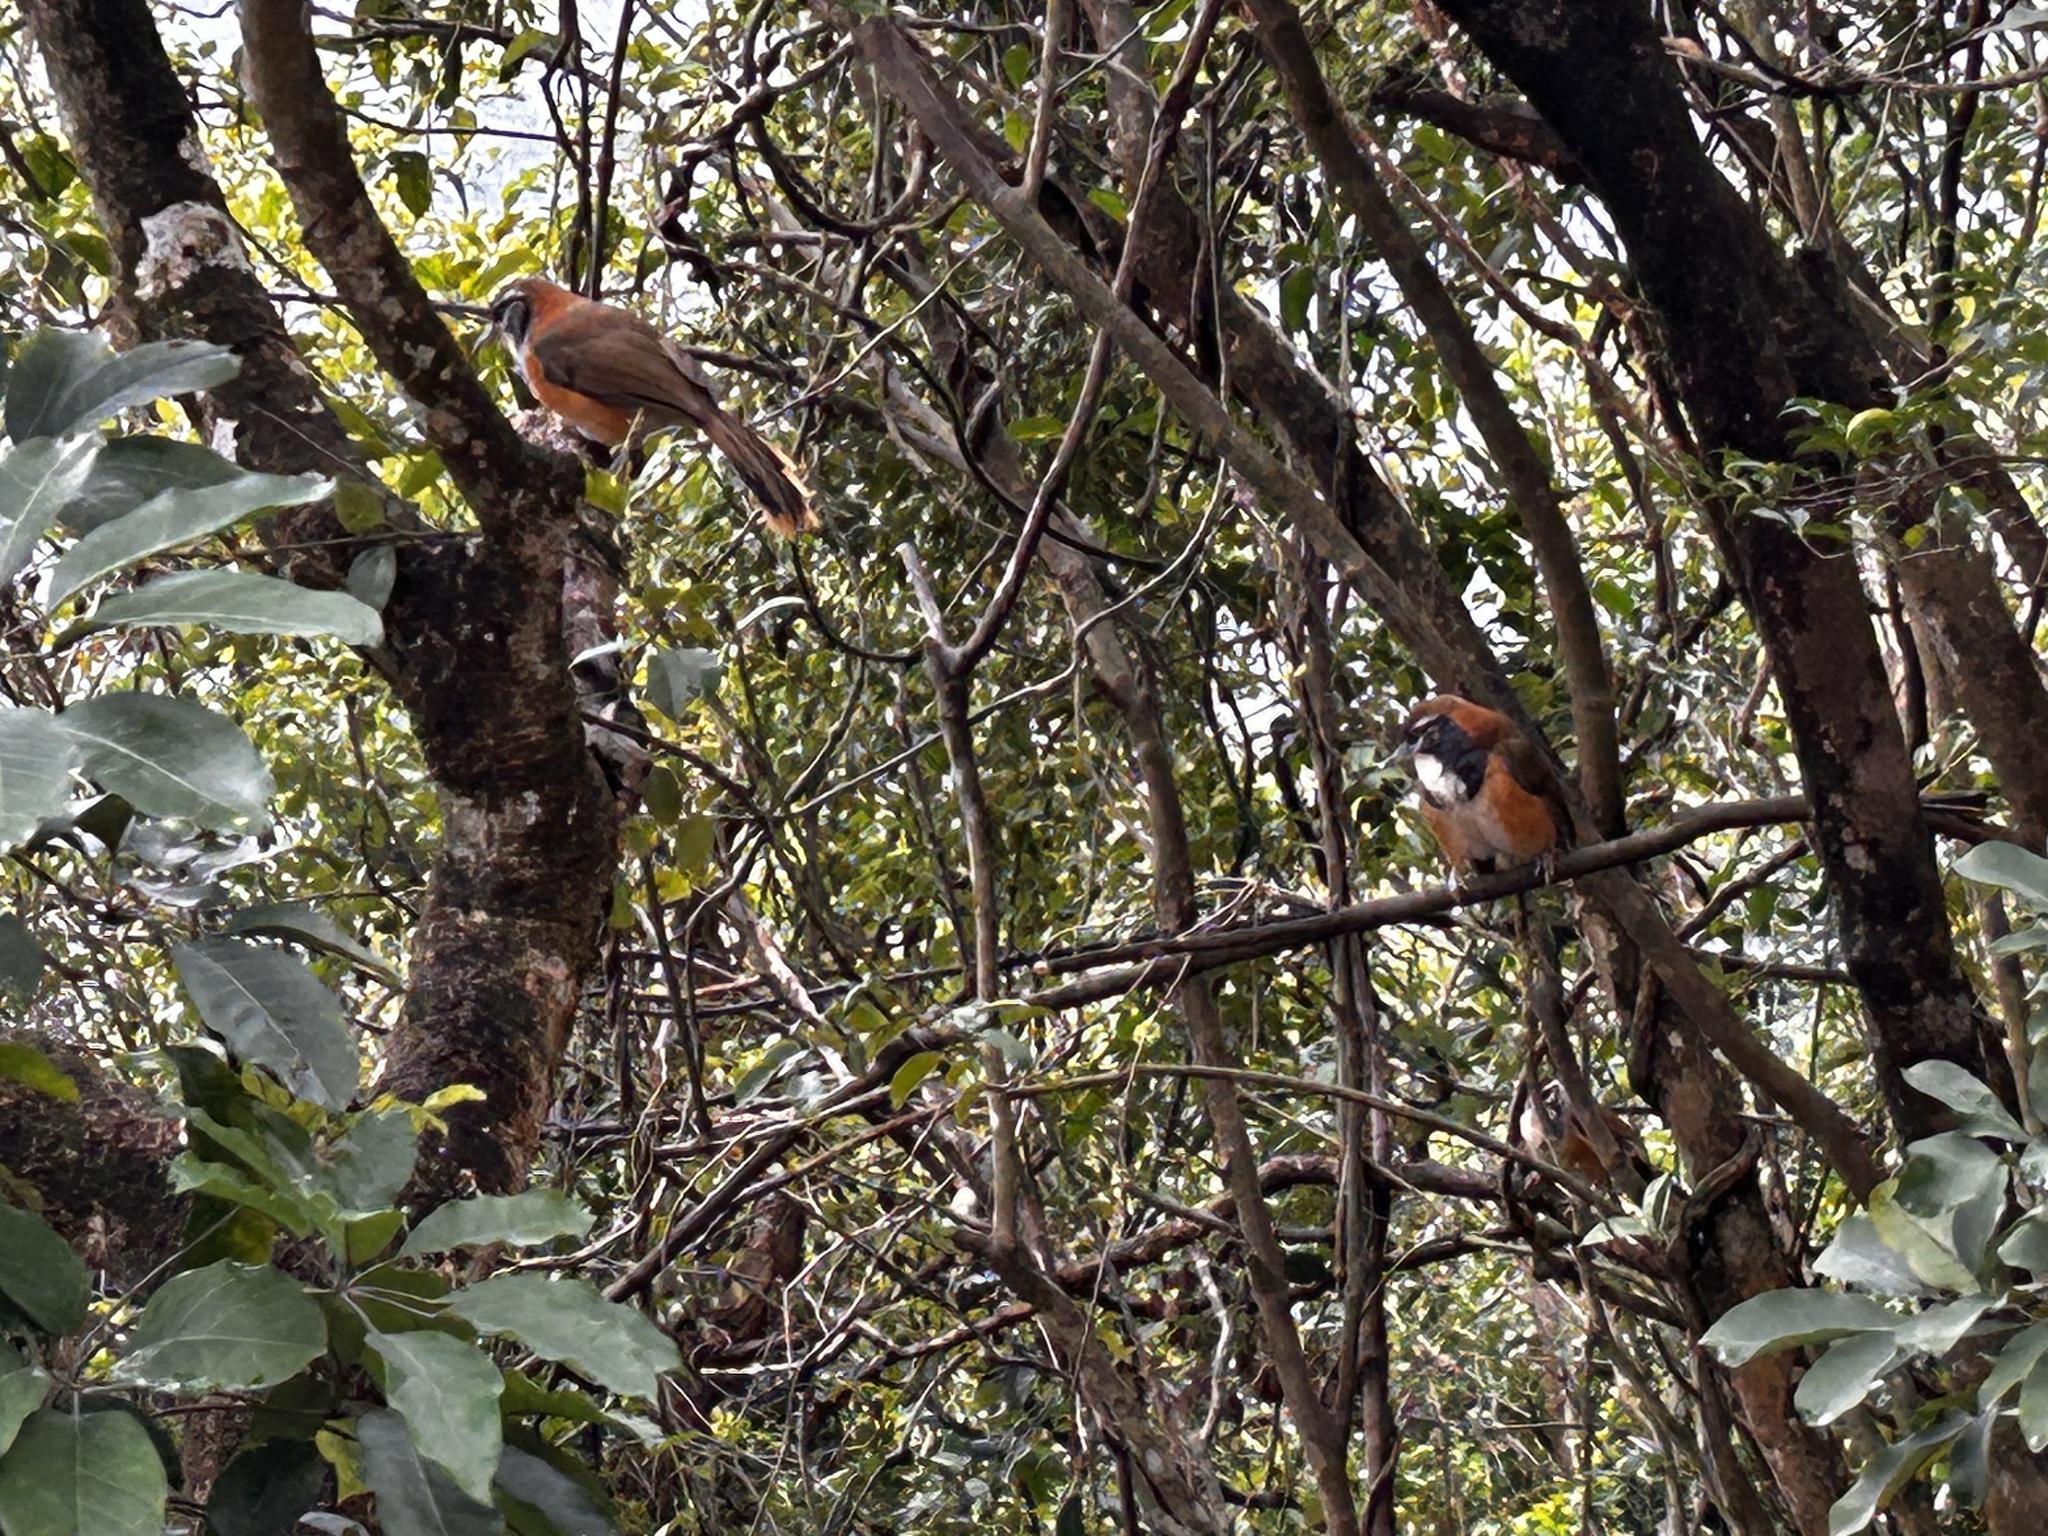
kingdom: Animalia
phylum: Chordata
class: Aves
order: Passeriformes
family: Leiothrichidae
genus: Garrulax
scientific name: Garrulax pectoralis
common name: Greater necklaced laughingthrush
